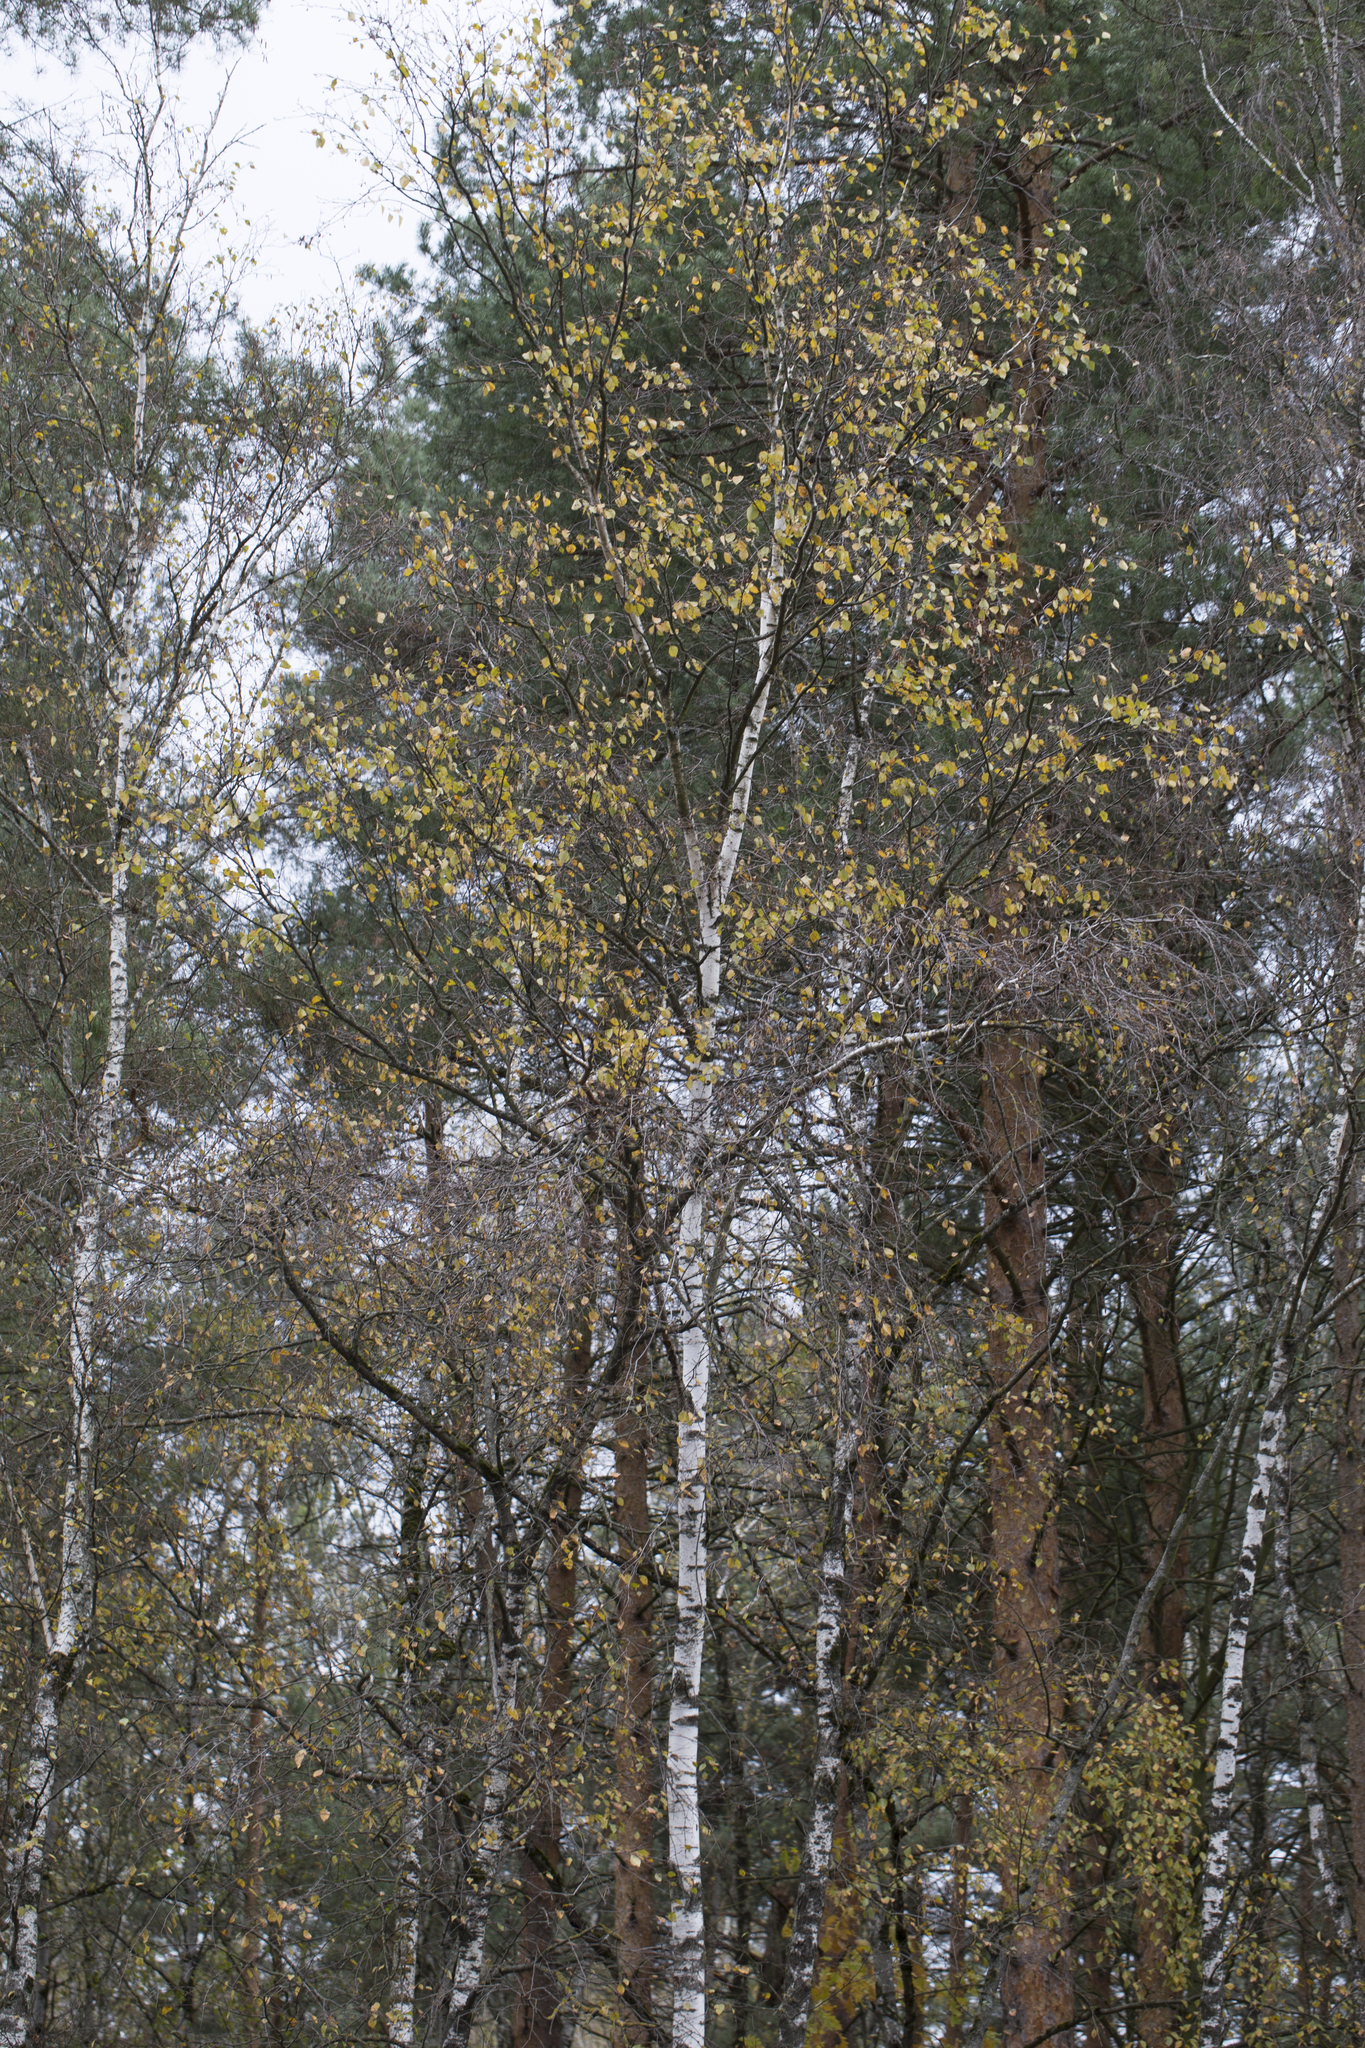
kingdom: Plantae
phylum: Tracheophyta
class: Magnoliopsida
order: Fagales
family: Betulaceae
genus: Betula
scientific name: Betula pendula
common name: Silver birch
